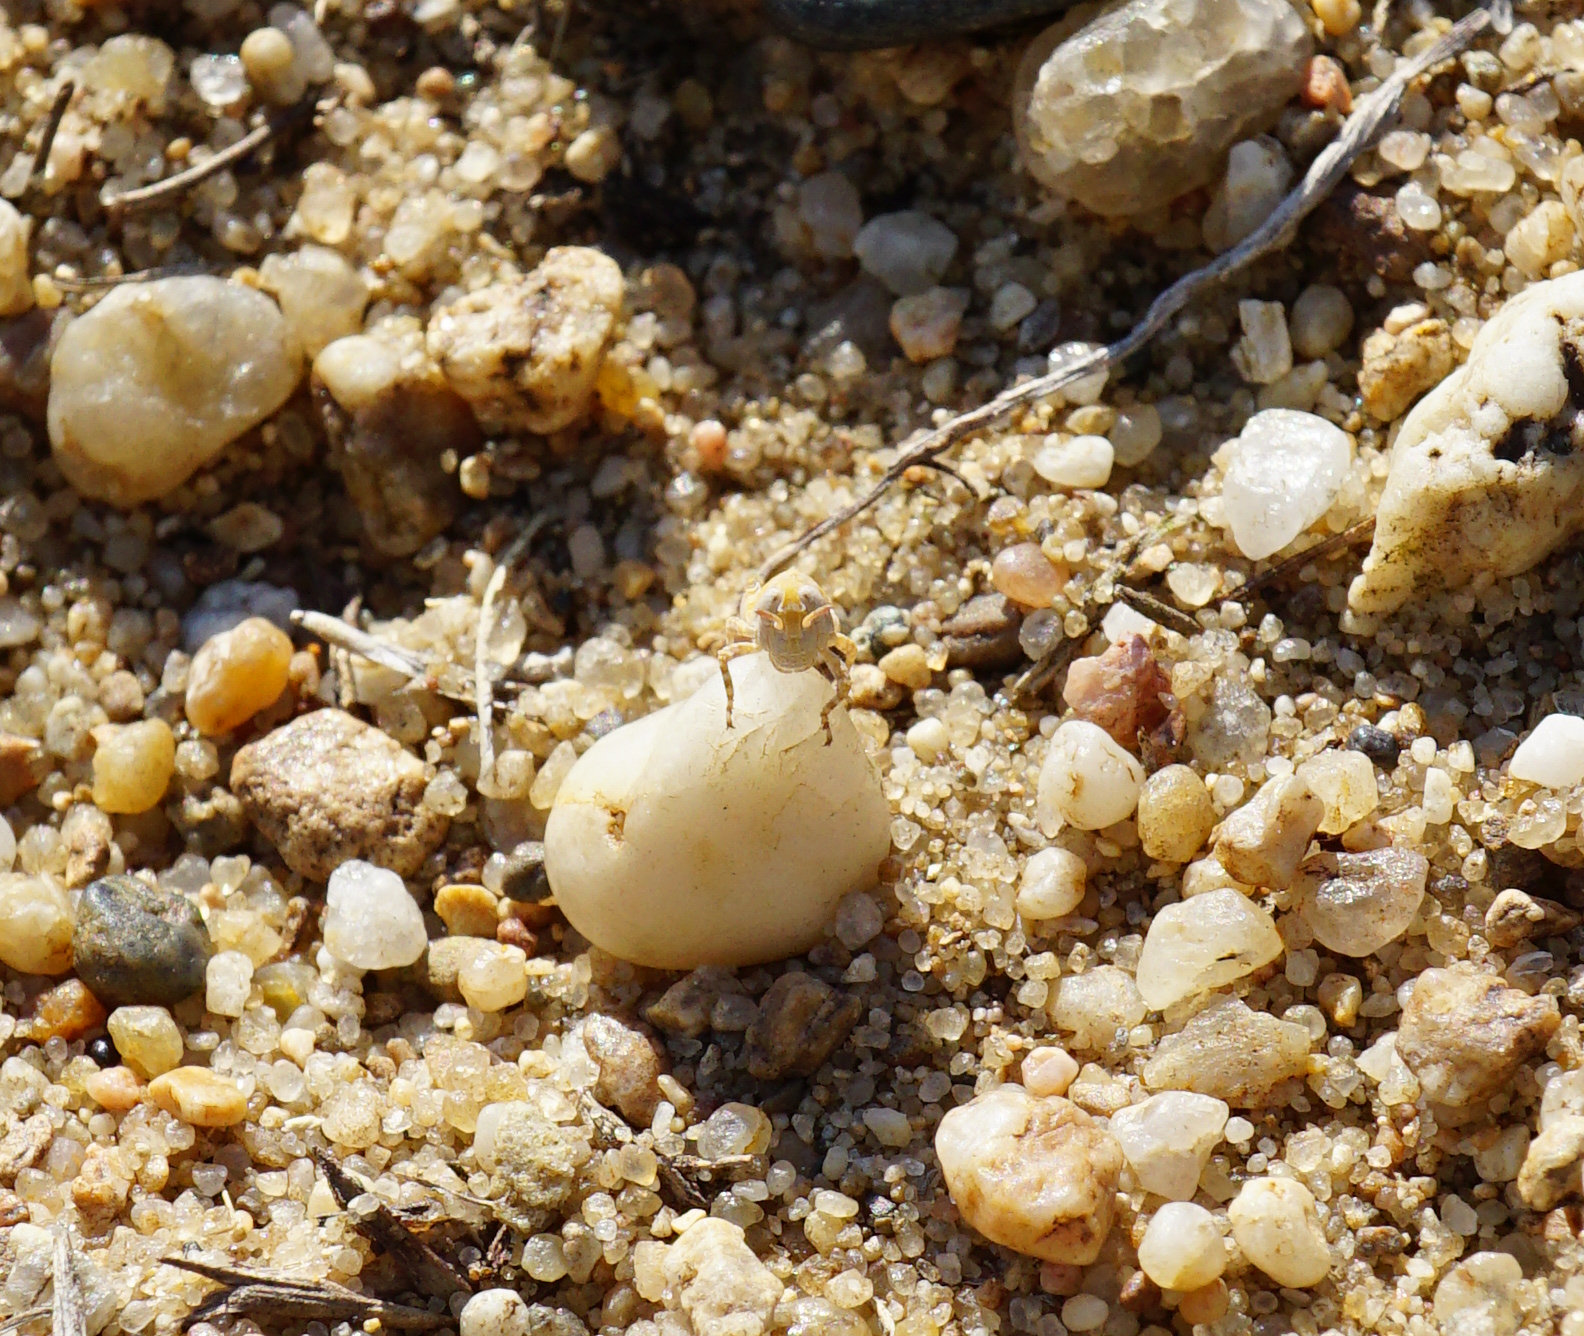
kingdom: Animalia
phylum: Arthropoda
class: Insecta
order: Orthoptera
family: Acrididae
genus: Sphingonotus
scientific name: Sphingonotus caerulans
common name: Blue-winged locust
